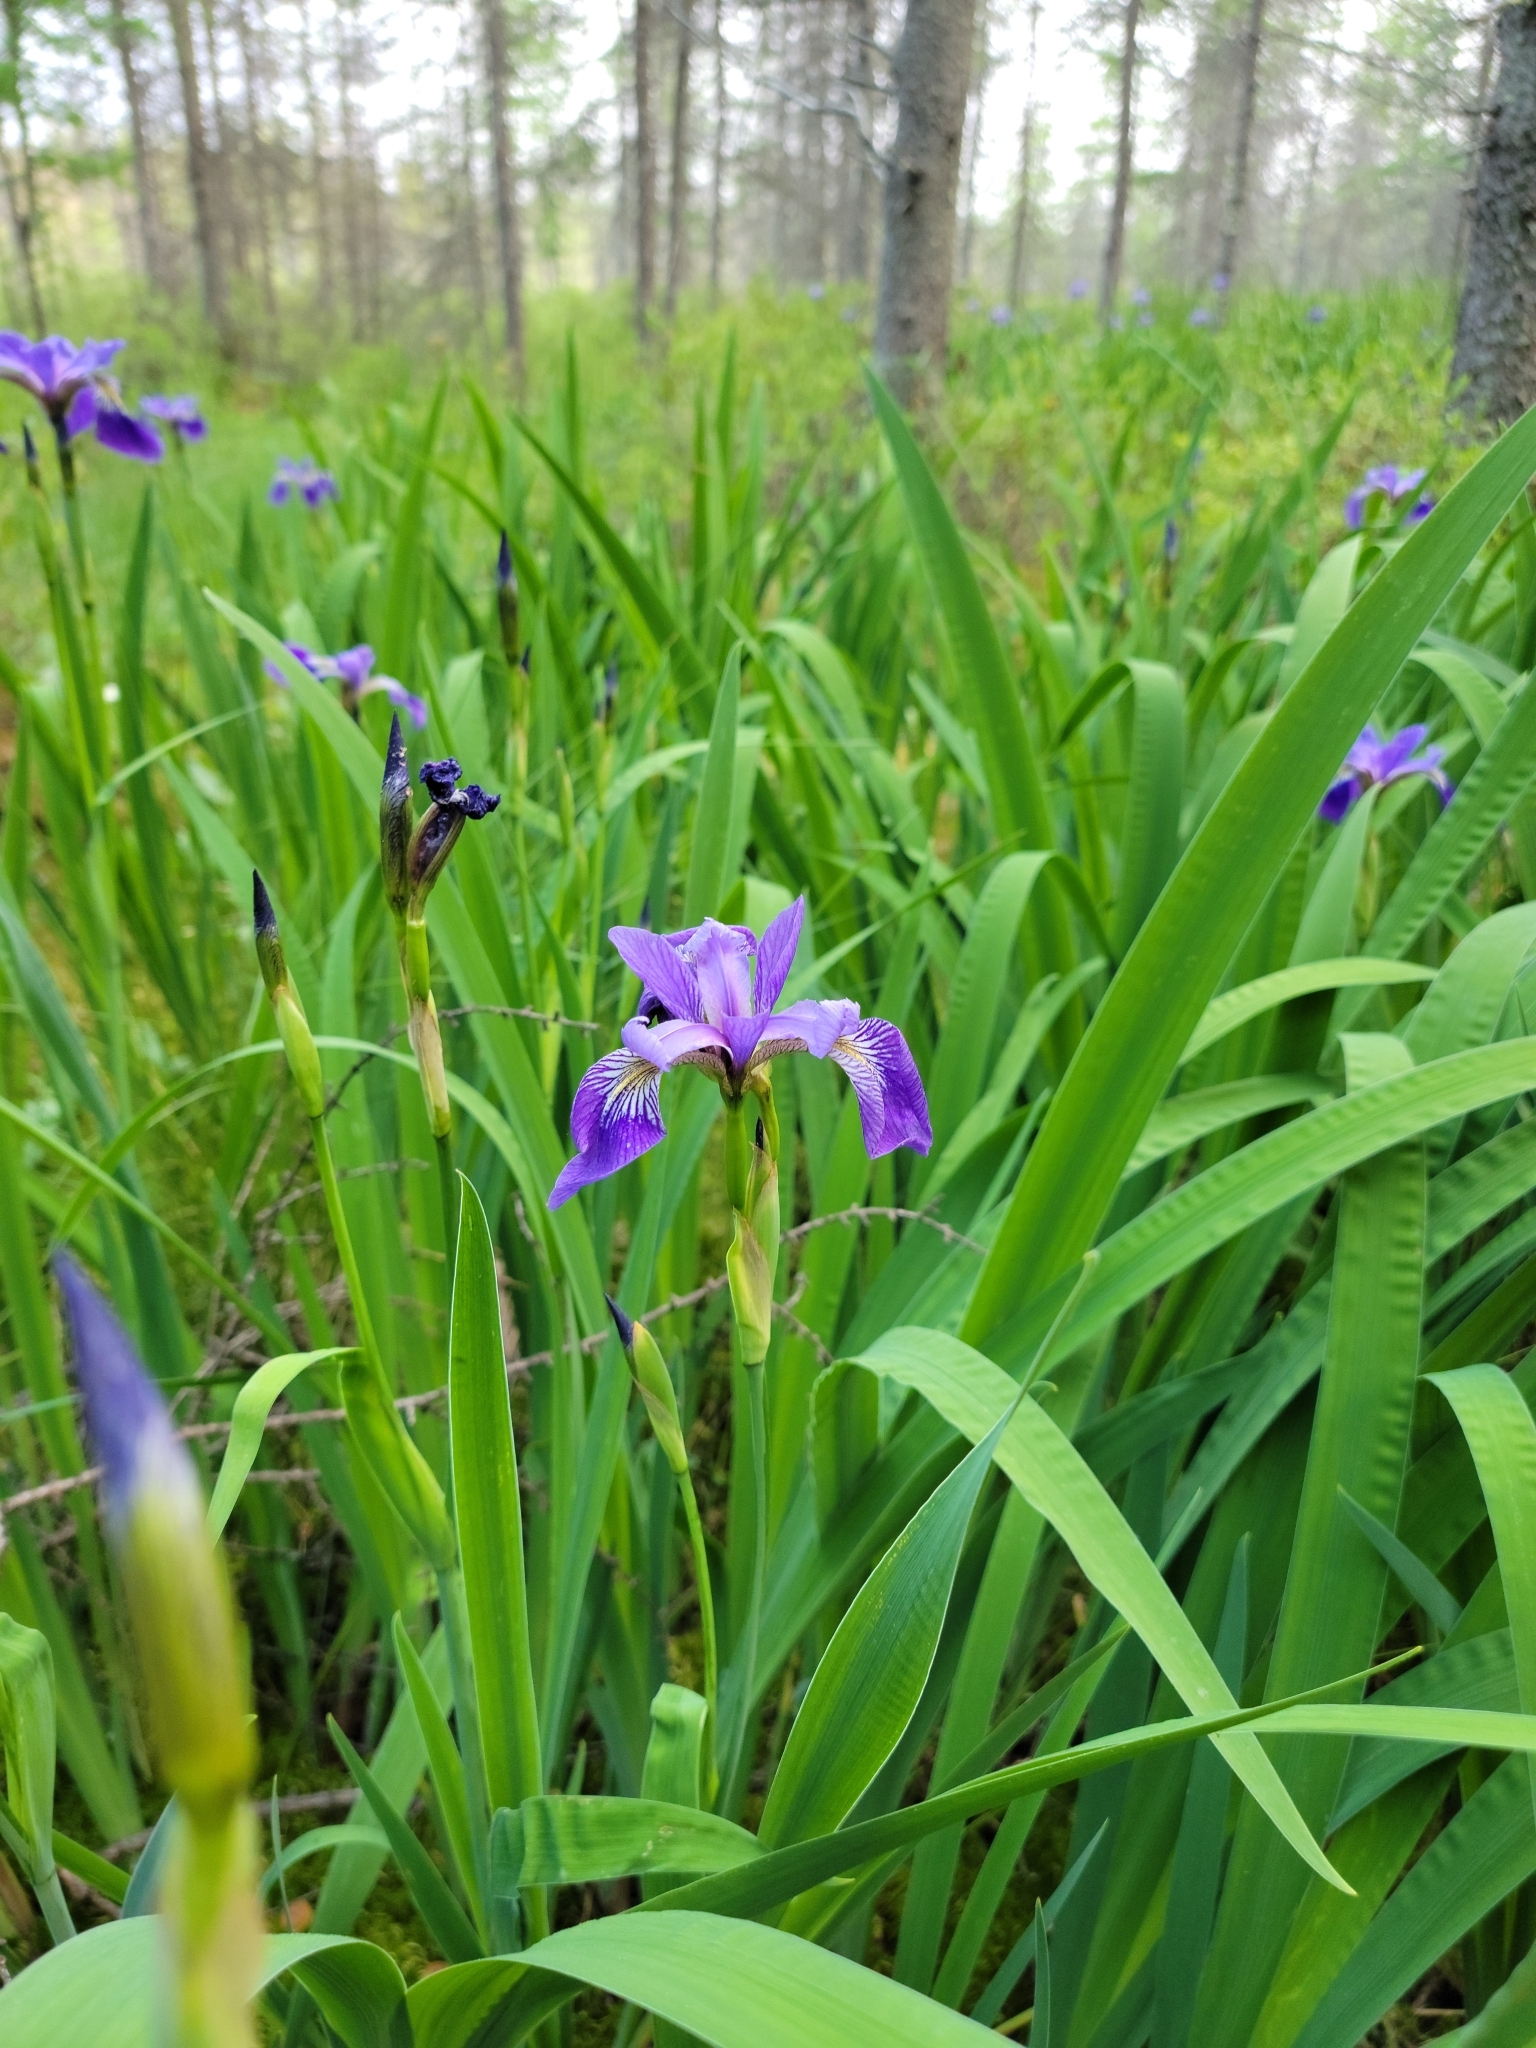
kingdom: Plantae
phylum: Tracheophyta
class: Liliopsida
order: Asparagales
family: Iridaceae
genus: Iris
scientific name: Iris versicolor
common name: Purple iris
